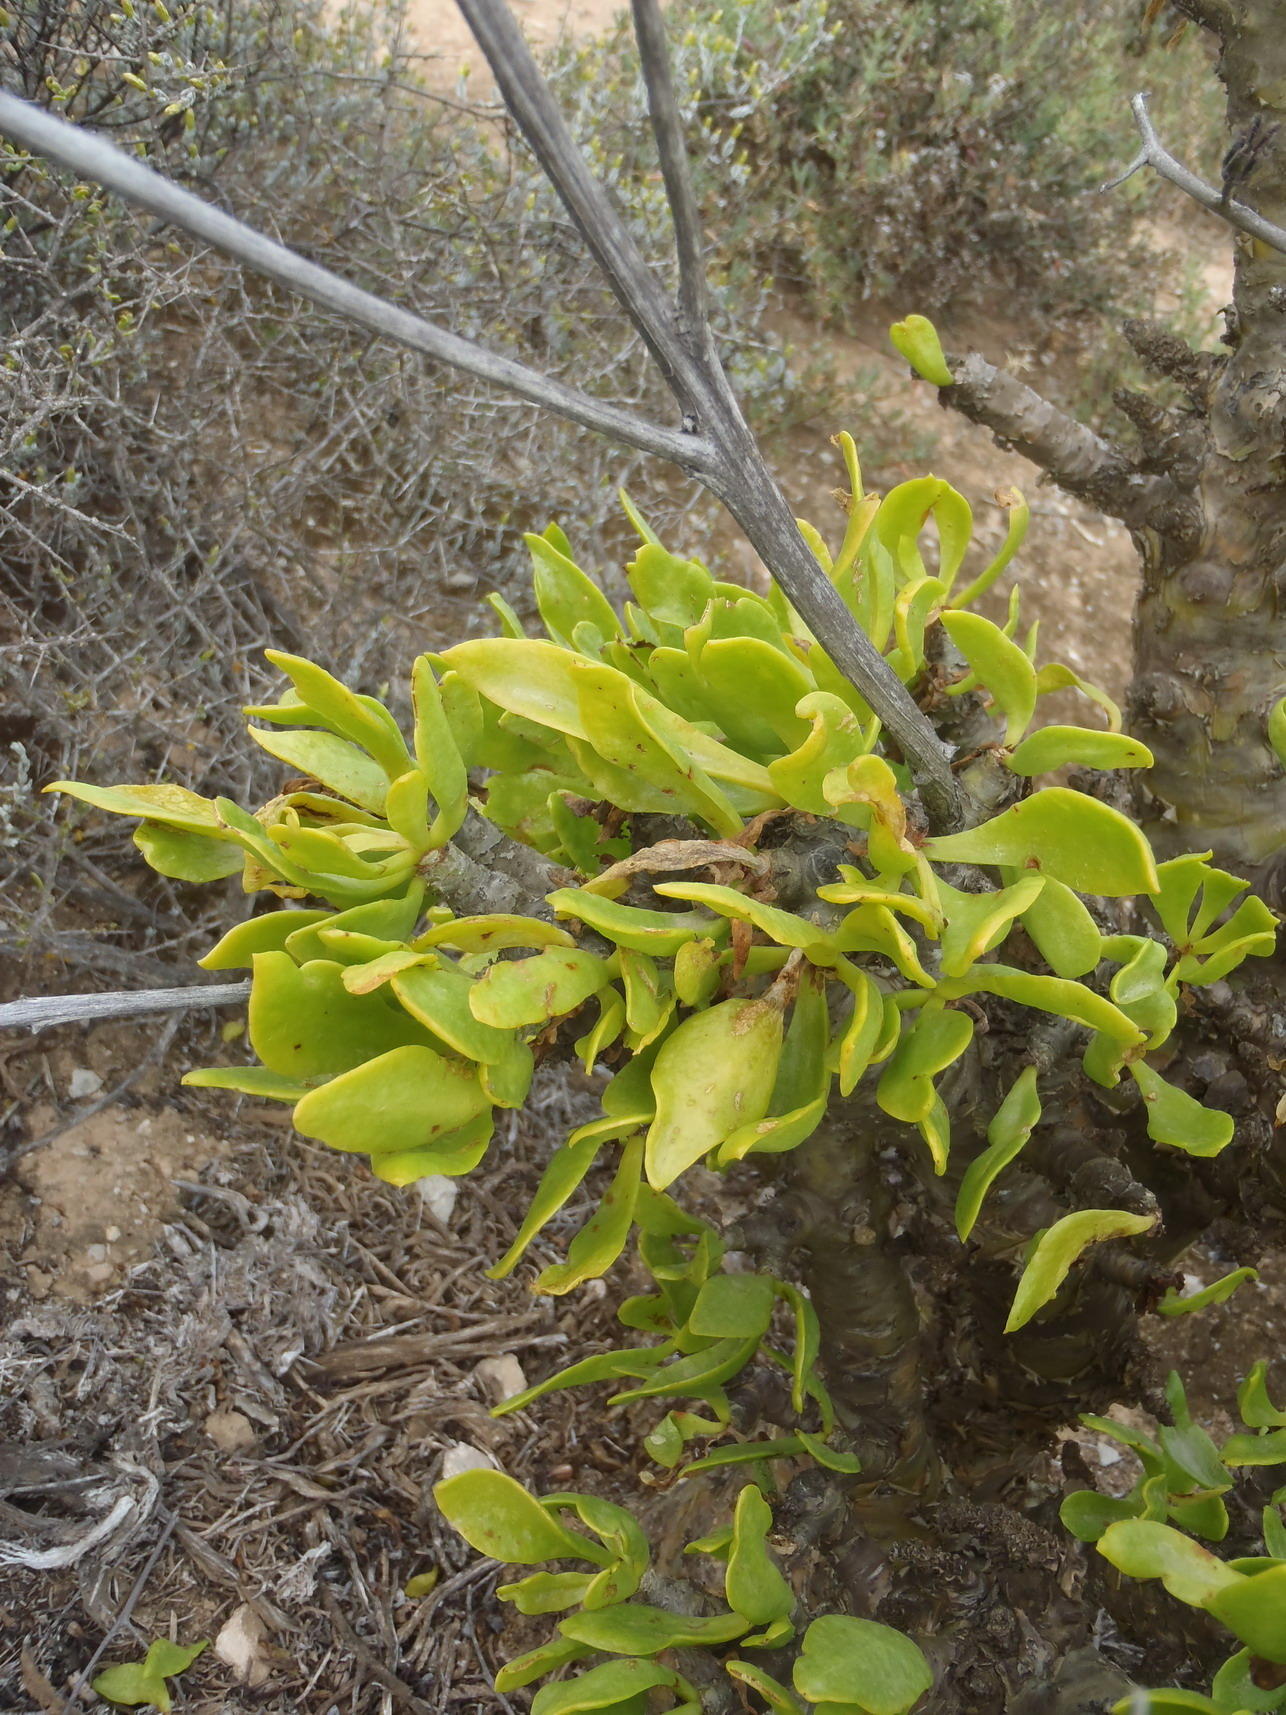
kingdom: Plantae
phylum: Tracheophyta
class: Magnoliopsida
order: Saxifragales
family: Crassulaceae
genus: Tylecodon
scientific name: Tylecodon paniculatus
